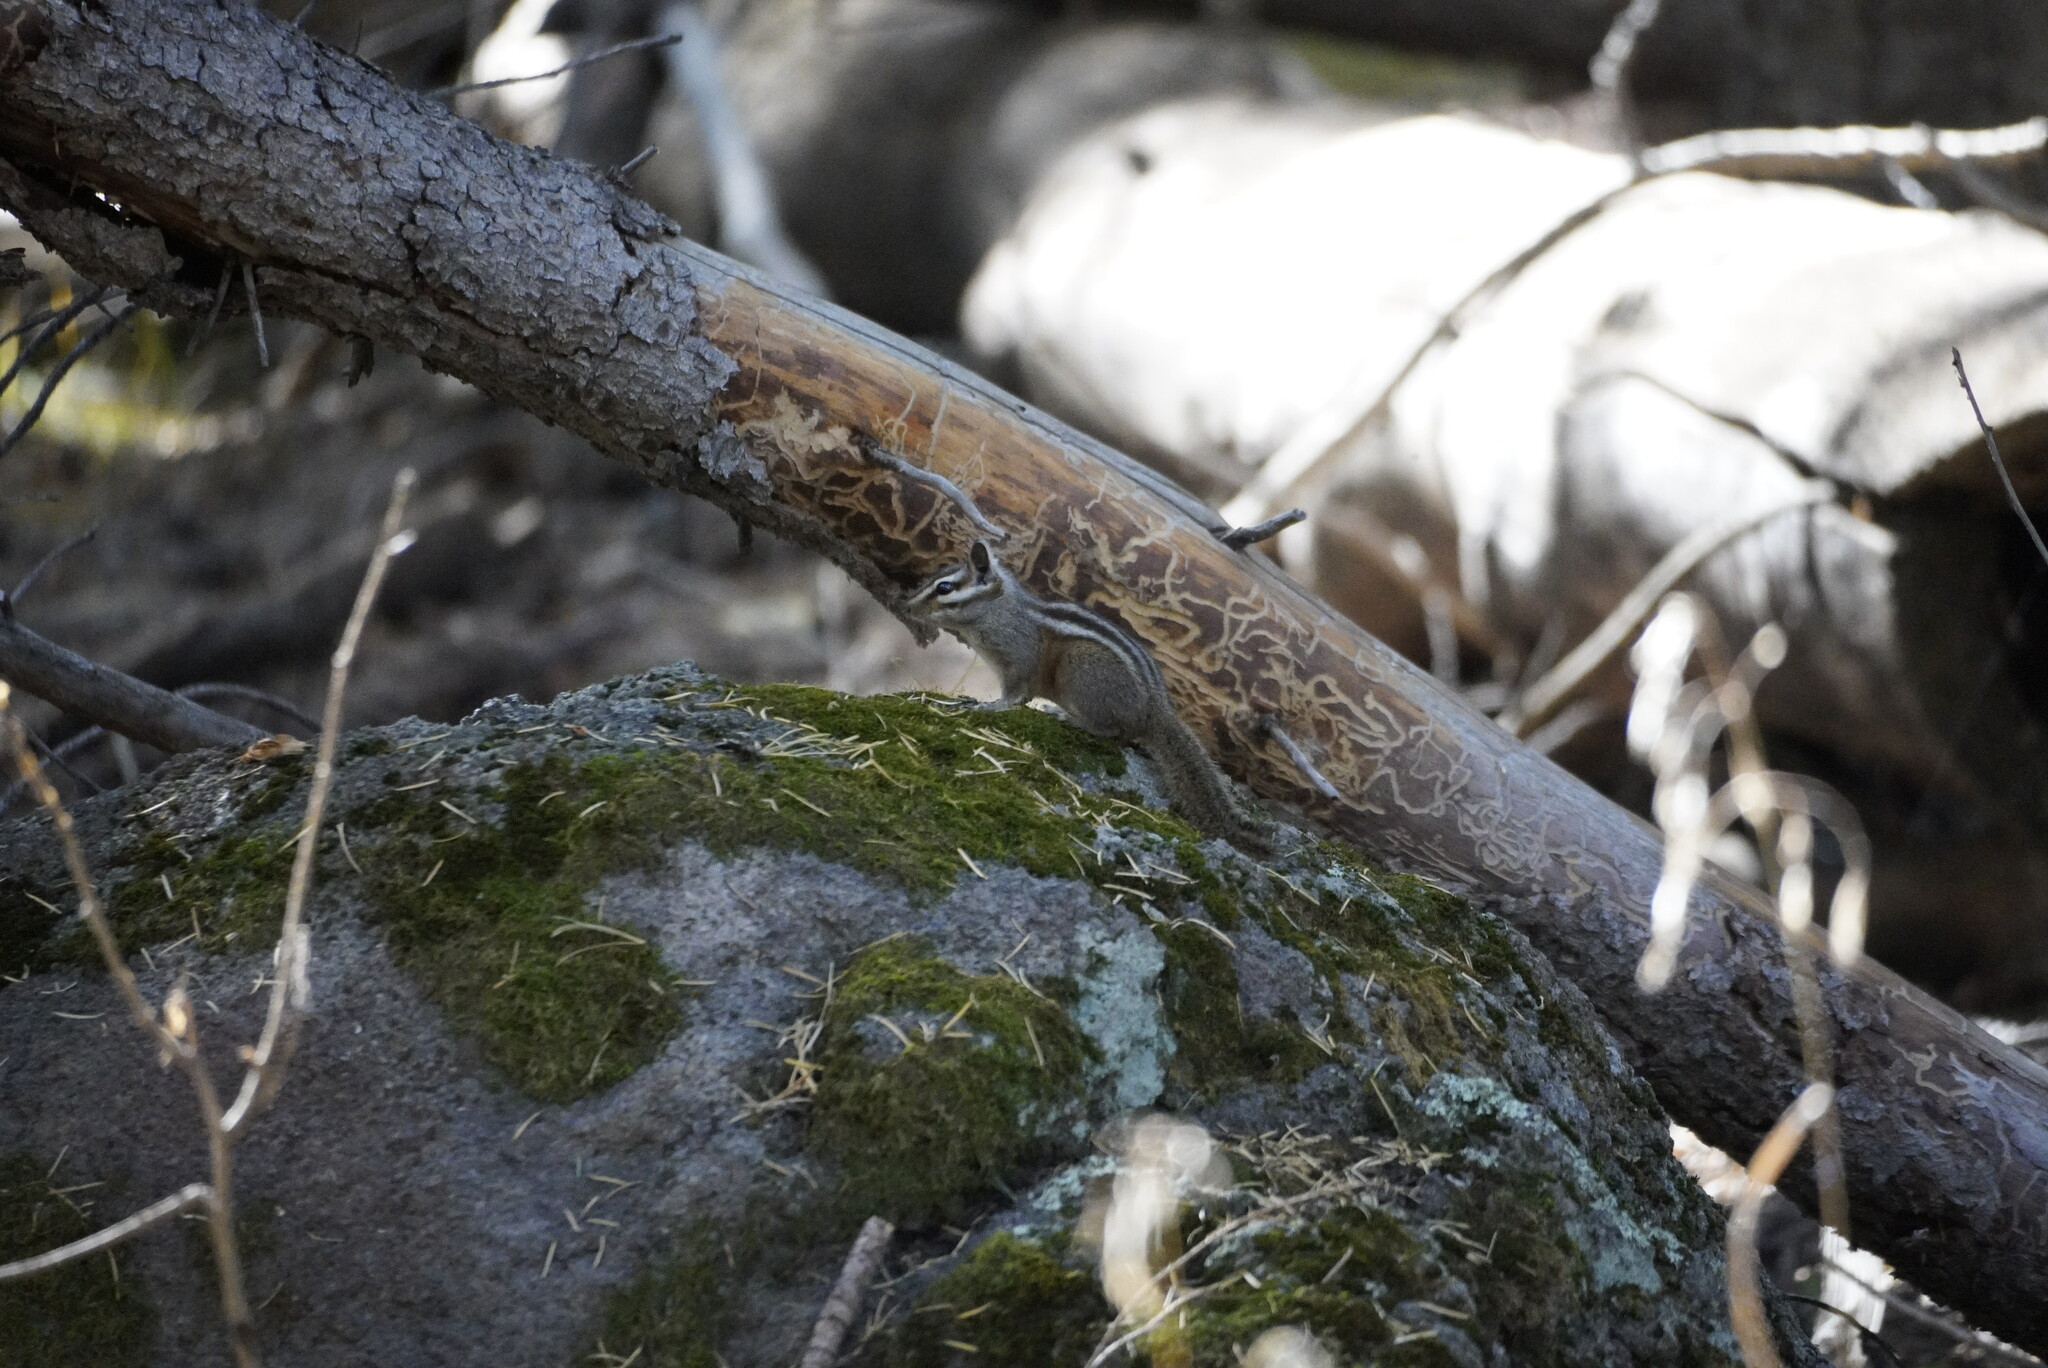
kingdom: Animalia
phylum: Chordata
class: Mammalia
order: Rodentia
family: Sciuridae
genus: Tamias
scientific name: Tamias cinereicollis
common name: Gray-collared chipmunk
